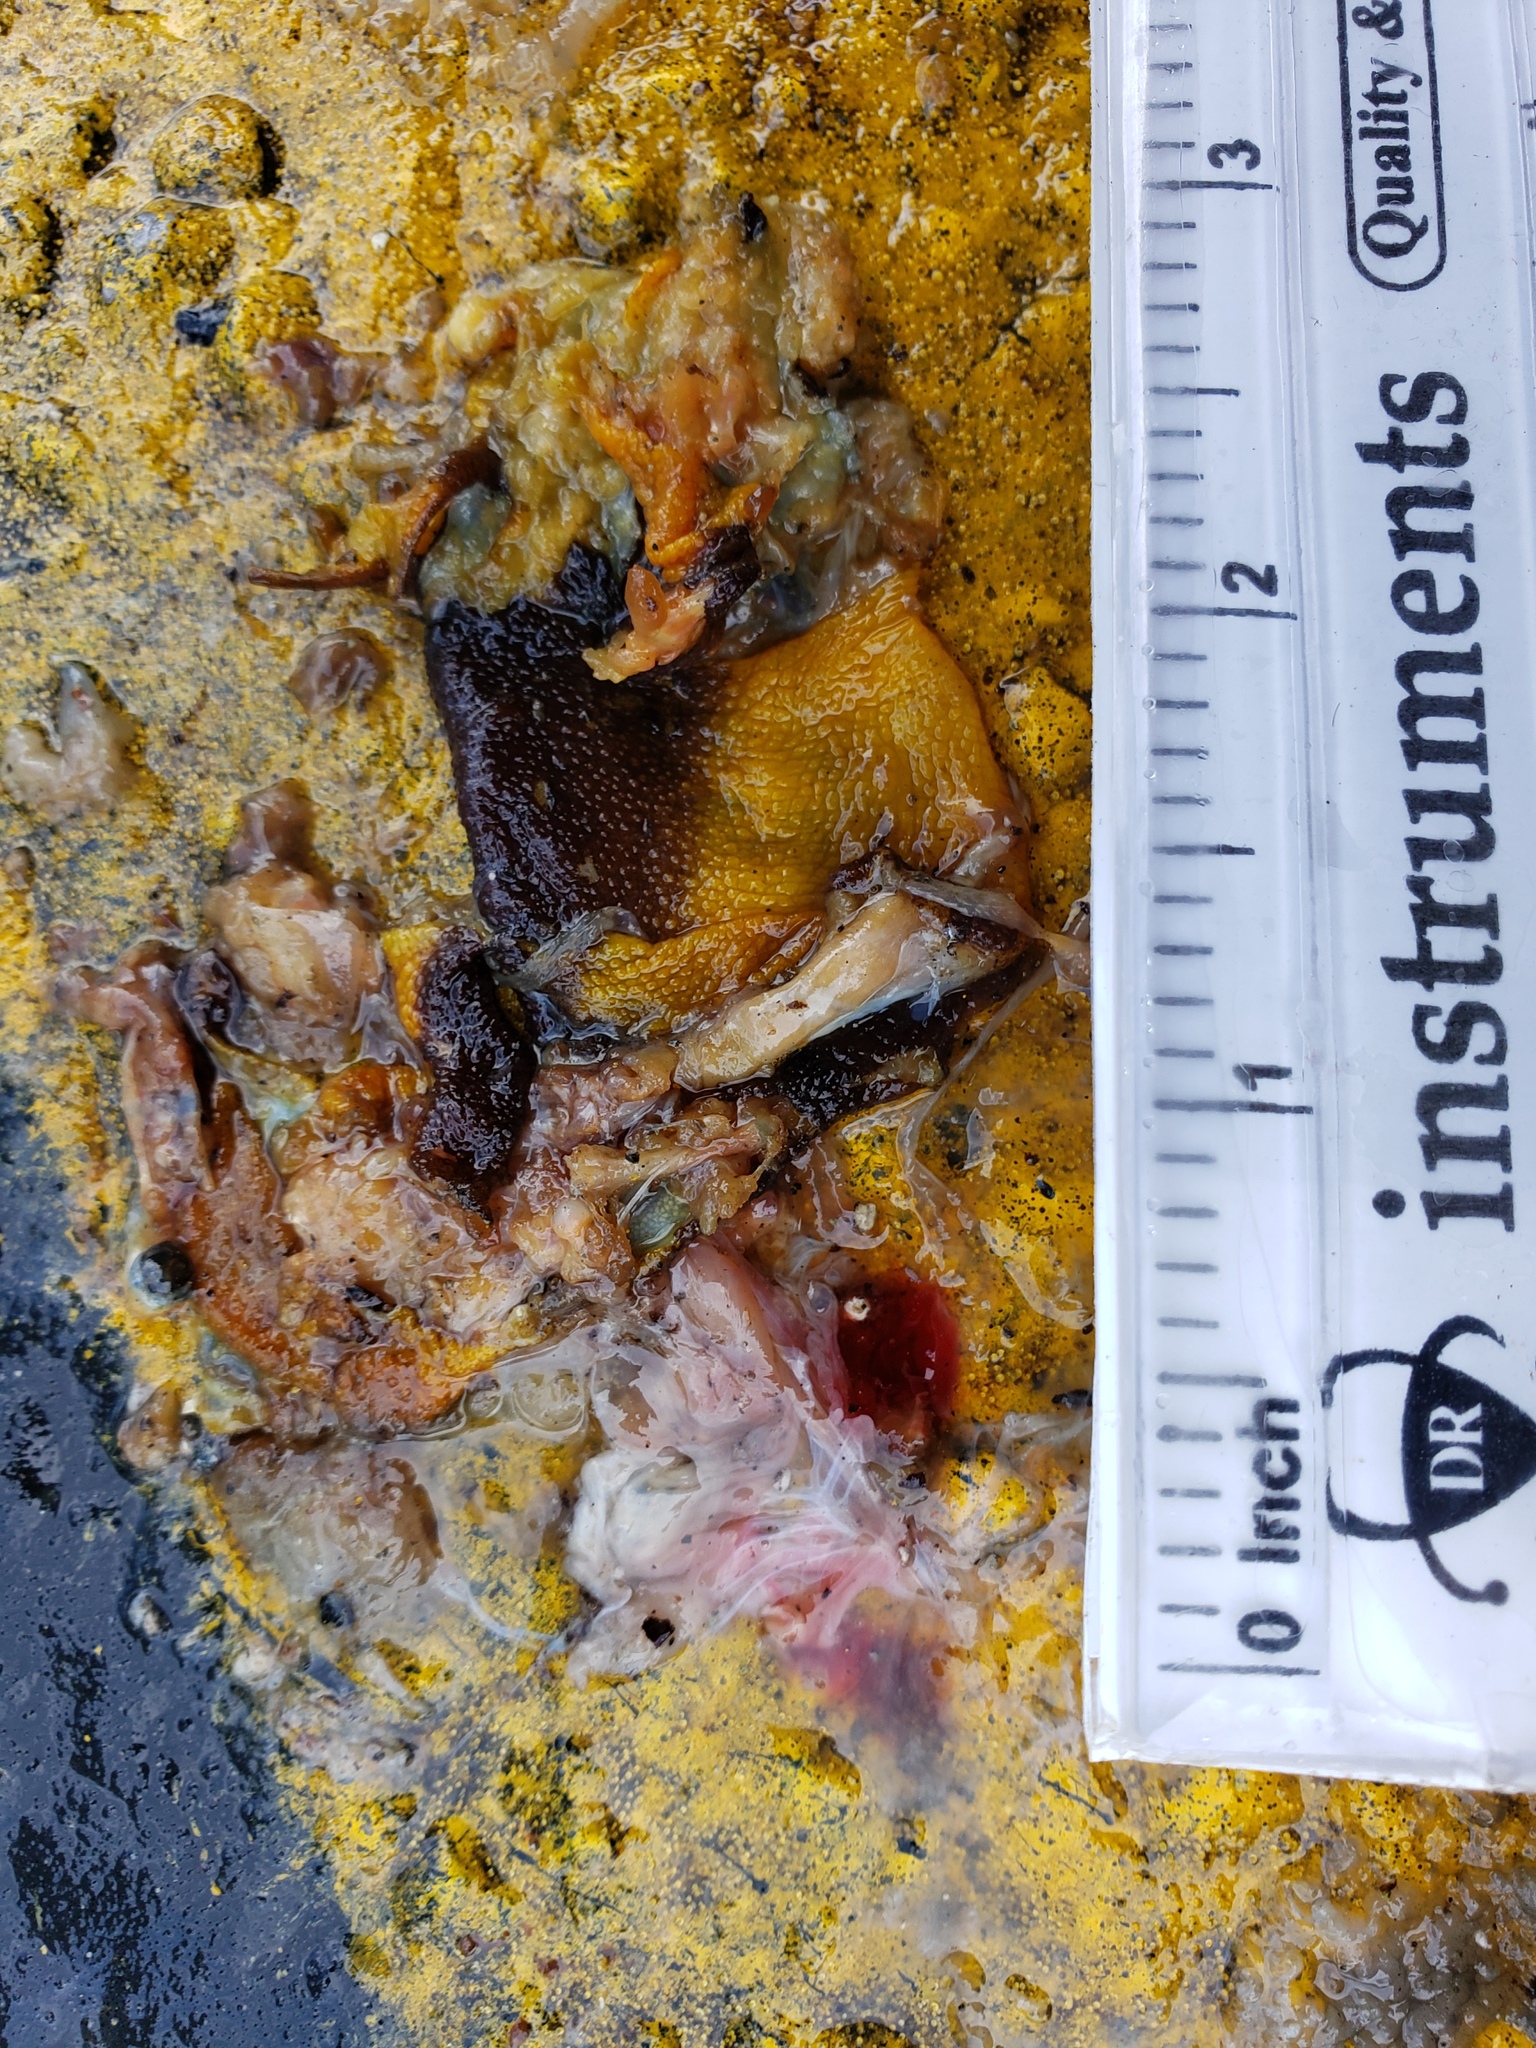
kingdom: Animalia
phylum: Chordata
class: Amphibia
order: Caudata
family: Salamandridae
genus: Taricha
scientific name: Taricha
